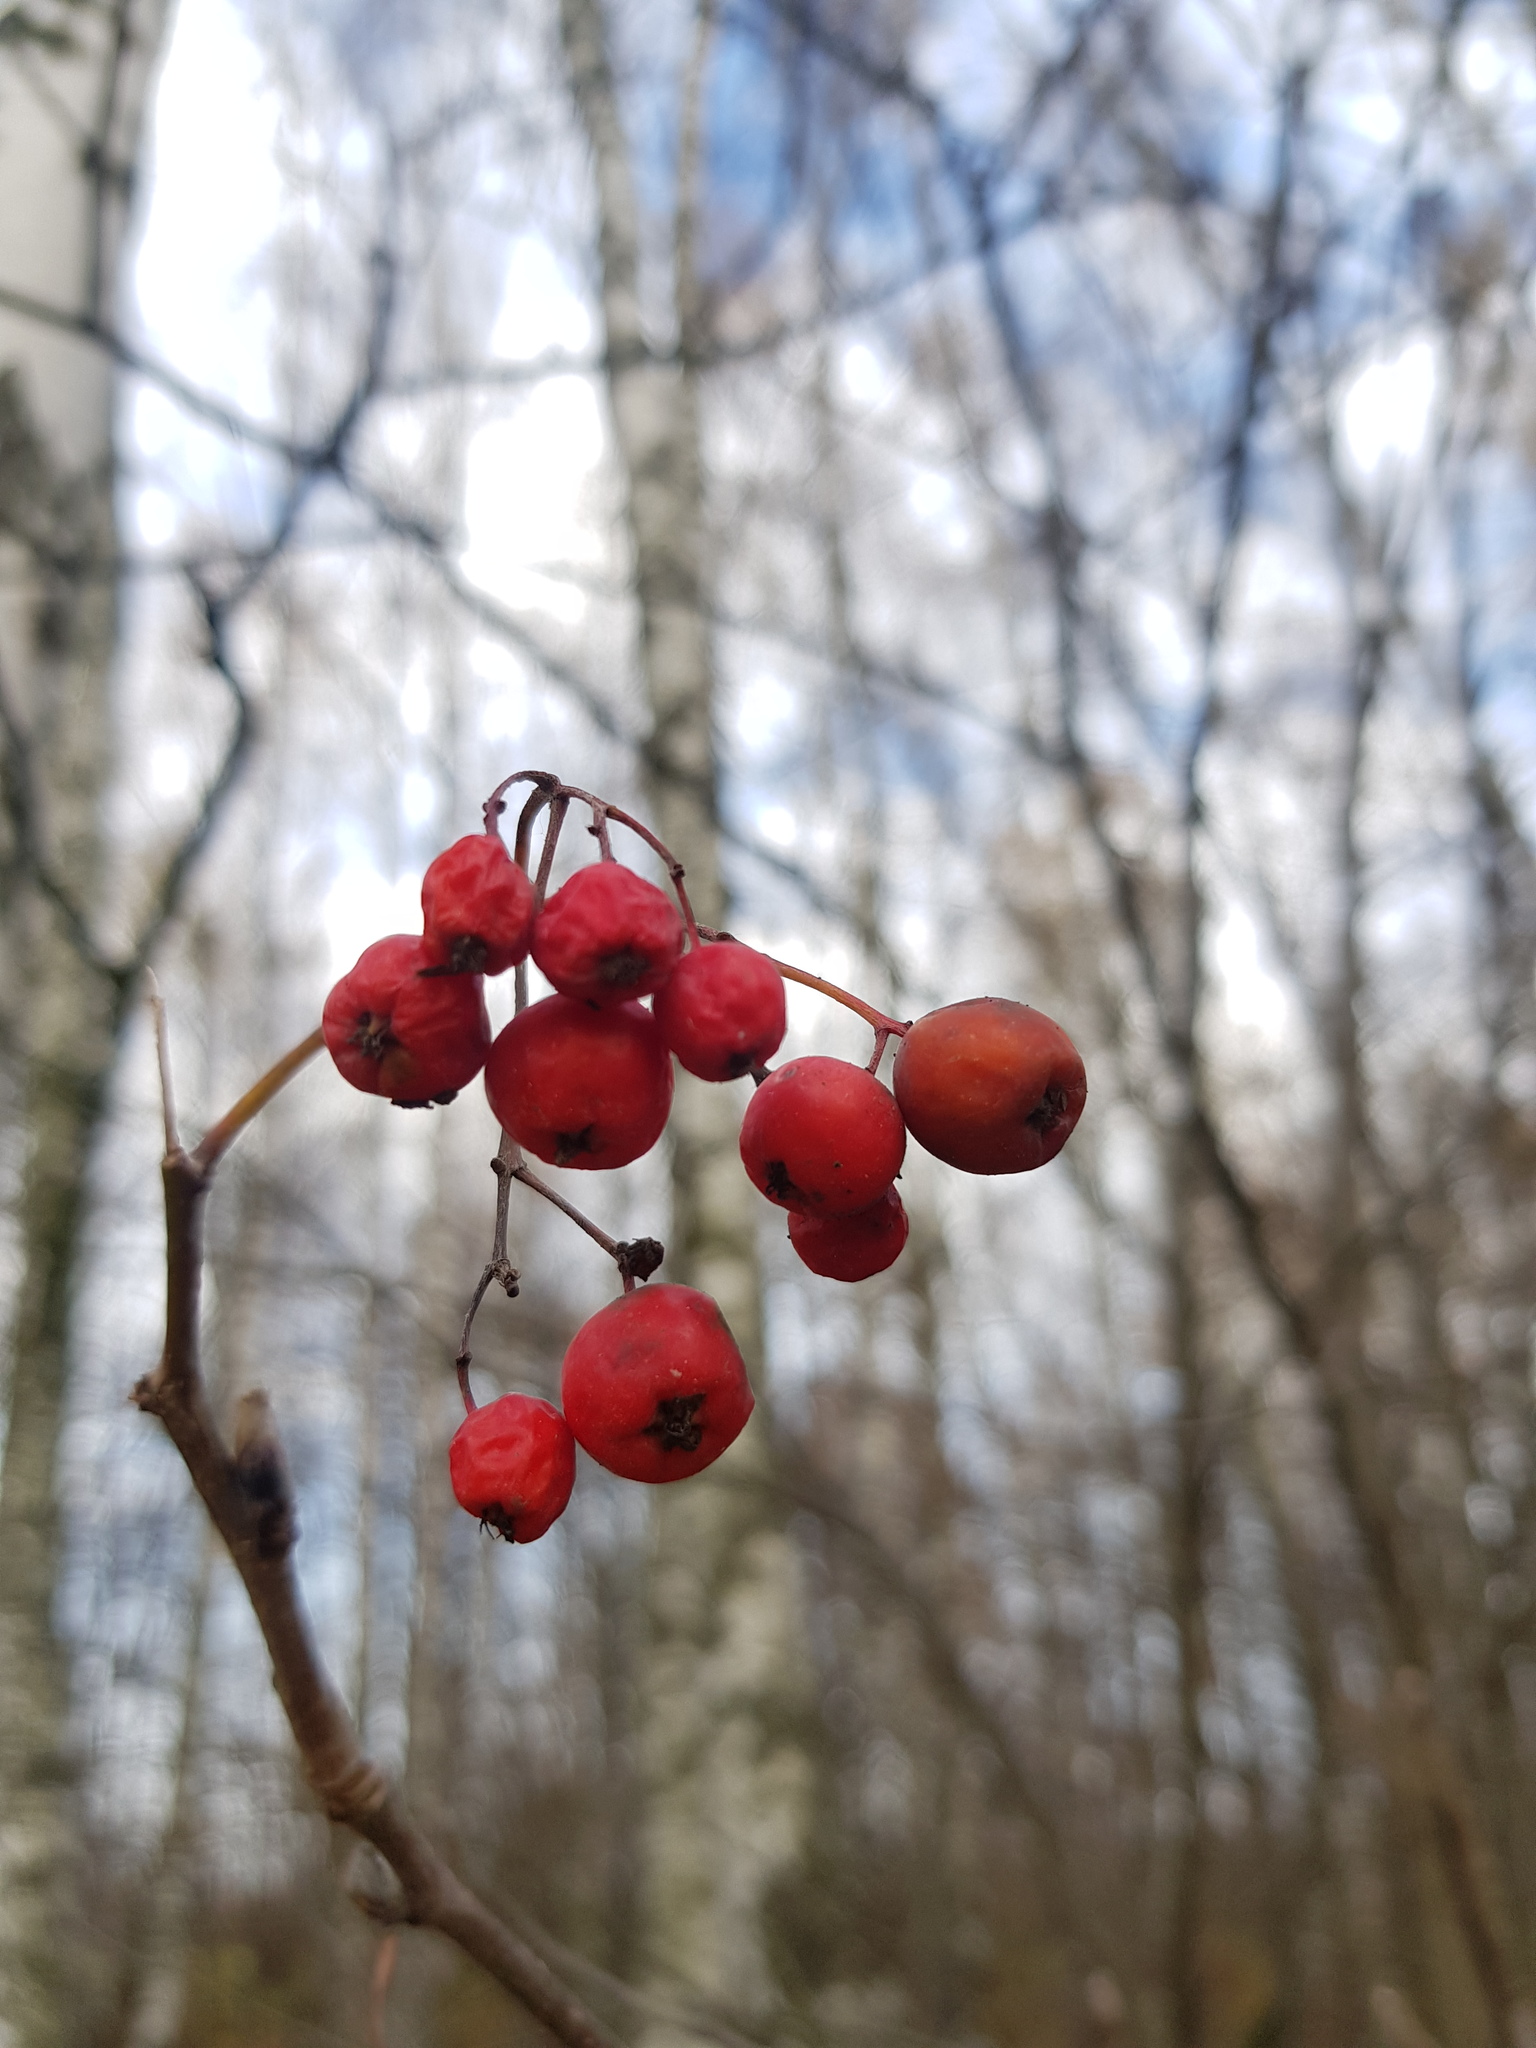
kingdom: Plantae
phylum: Tracheophyta
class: Magnoliopsida
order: Rosales
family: Rosaceae
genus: Sorbus
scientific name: Sorbus aucuparia
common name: Rowan
